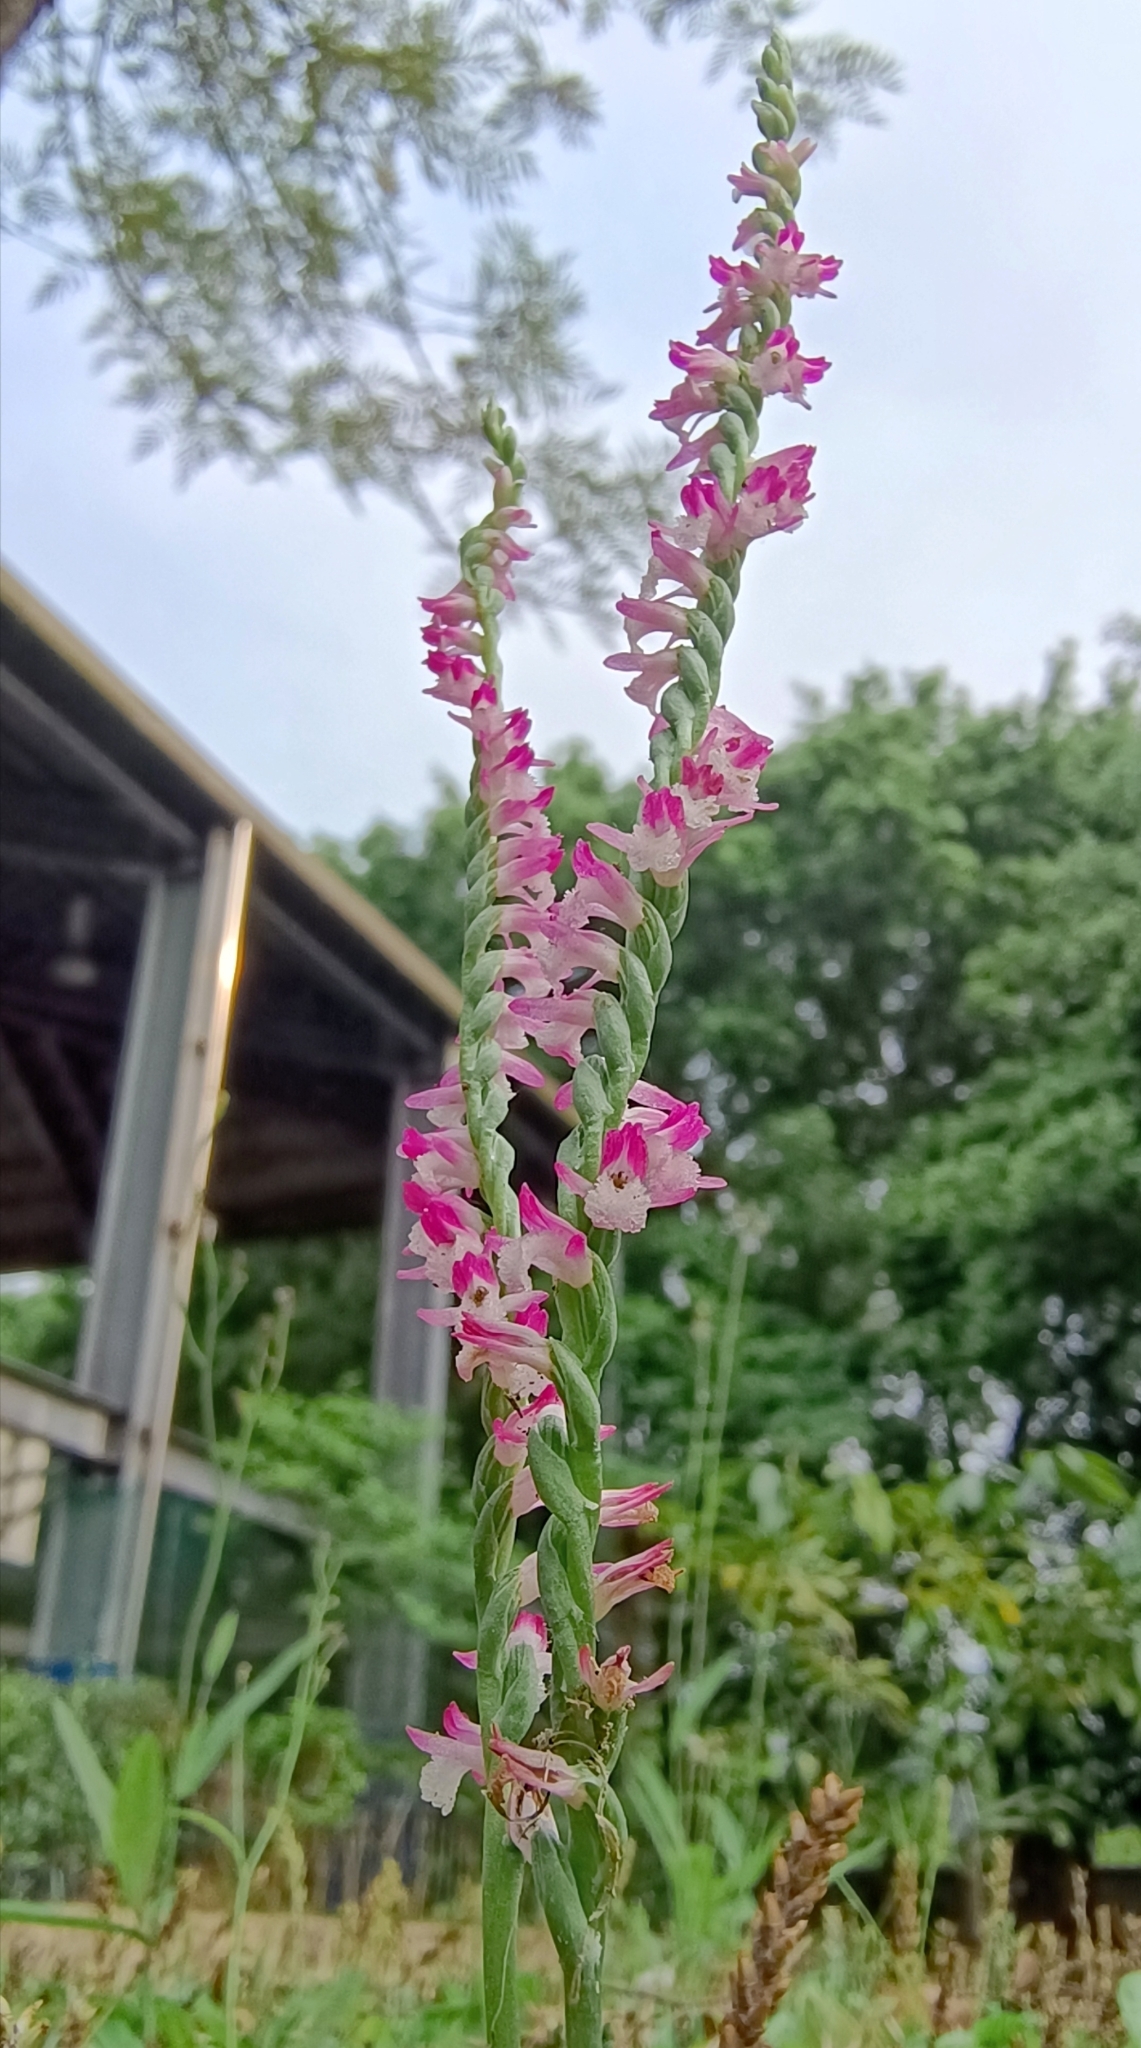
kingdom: Plantae
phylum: Tracheophyta
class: Liliopsida
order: Asparagales
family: Orchidaceae
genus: Spiranthes
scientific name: Spiranthes sinensis
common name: Chinese spiranthes
